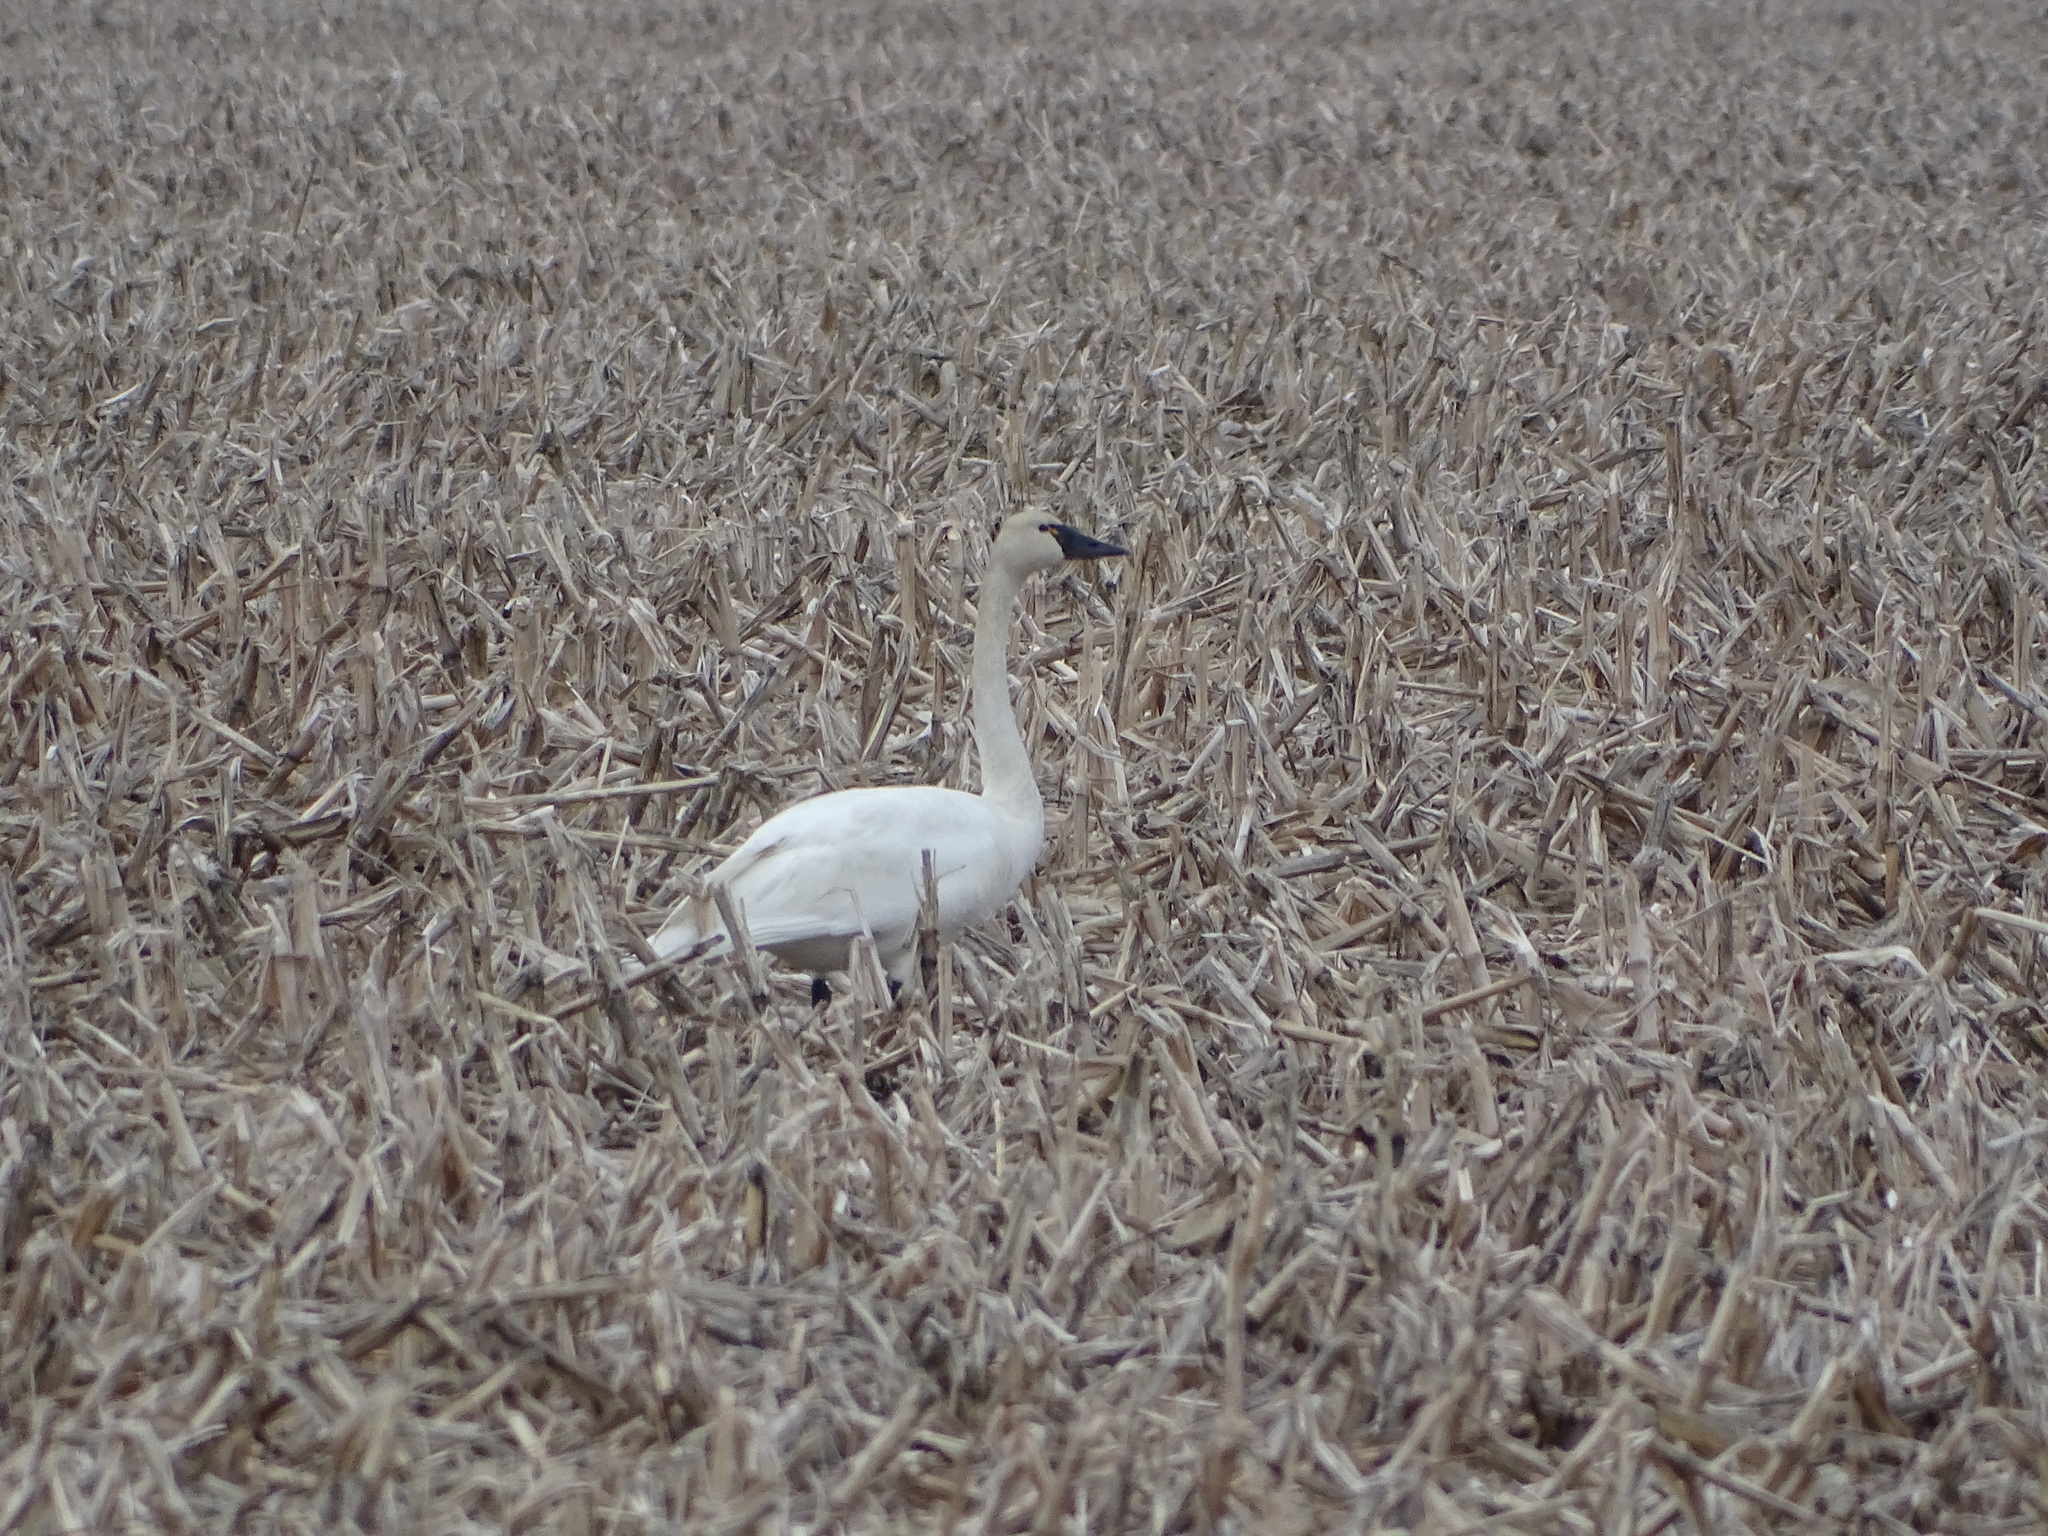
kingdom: Animalia
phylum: Chordata
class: Aves
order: Anseriformes
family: Anatidae
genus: Cygnus
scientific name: Cygnus columbianus
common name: Tundra swan
